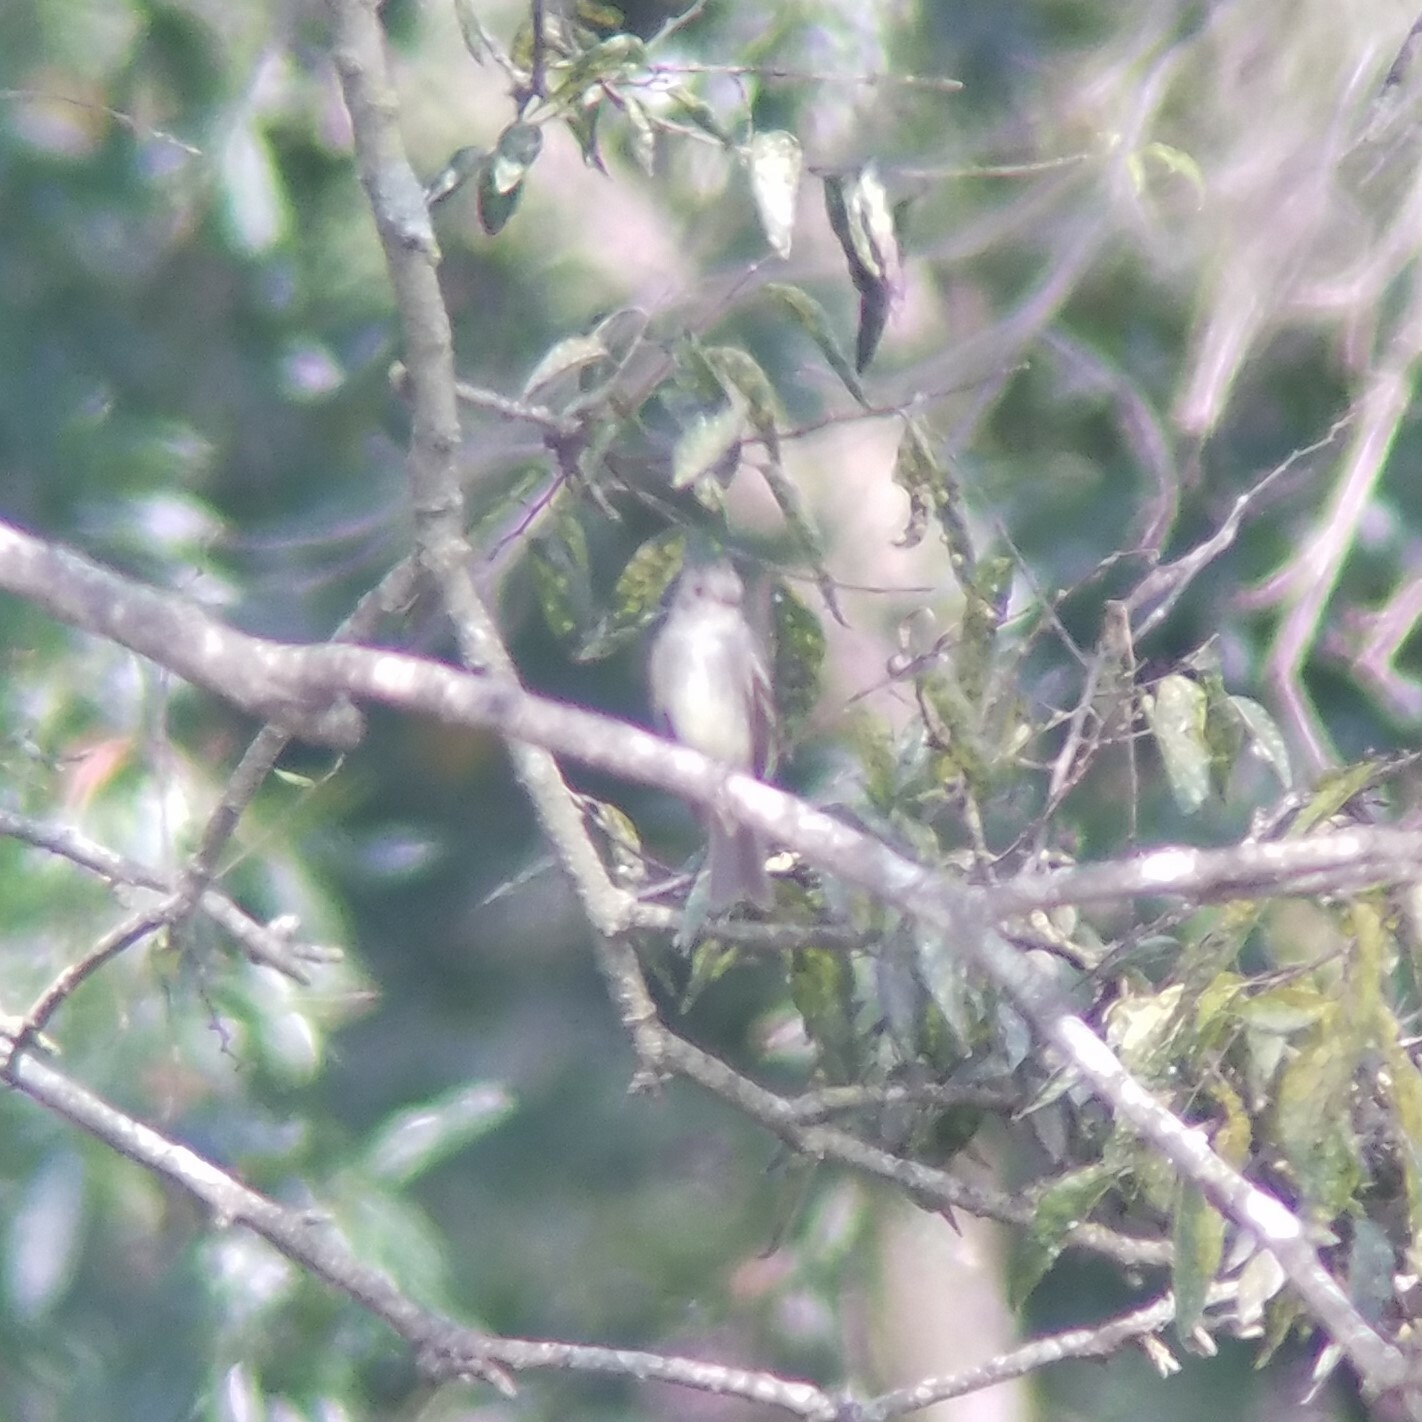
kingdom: Animalia
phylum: Chordata
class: Aves
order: Passeriformes
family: Tyrannidae
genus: Contopus
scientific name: Contopus virens
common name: Eastern wood-pewee
